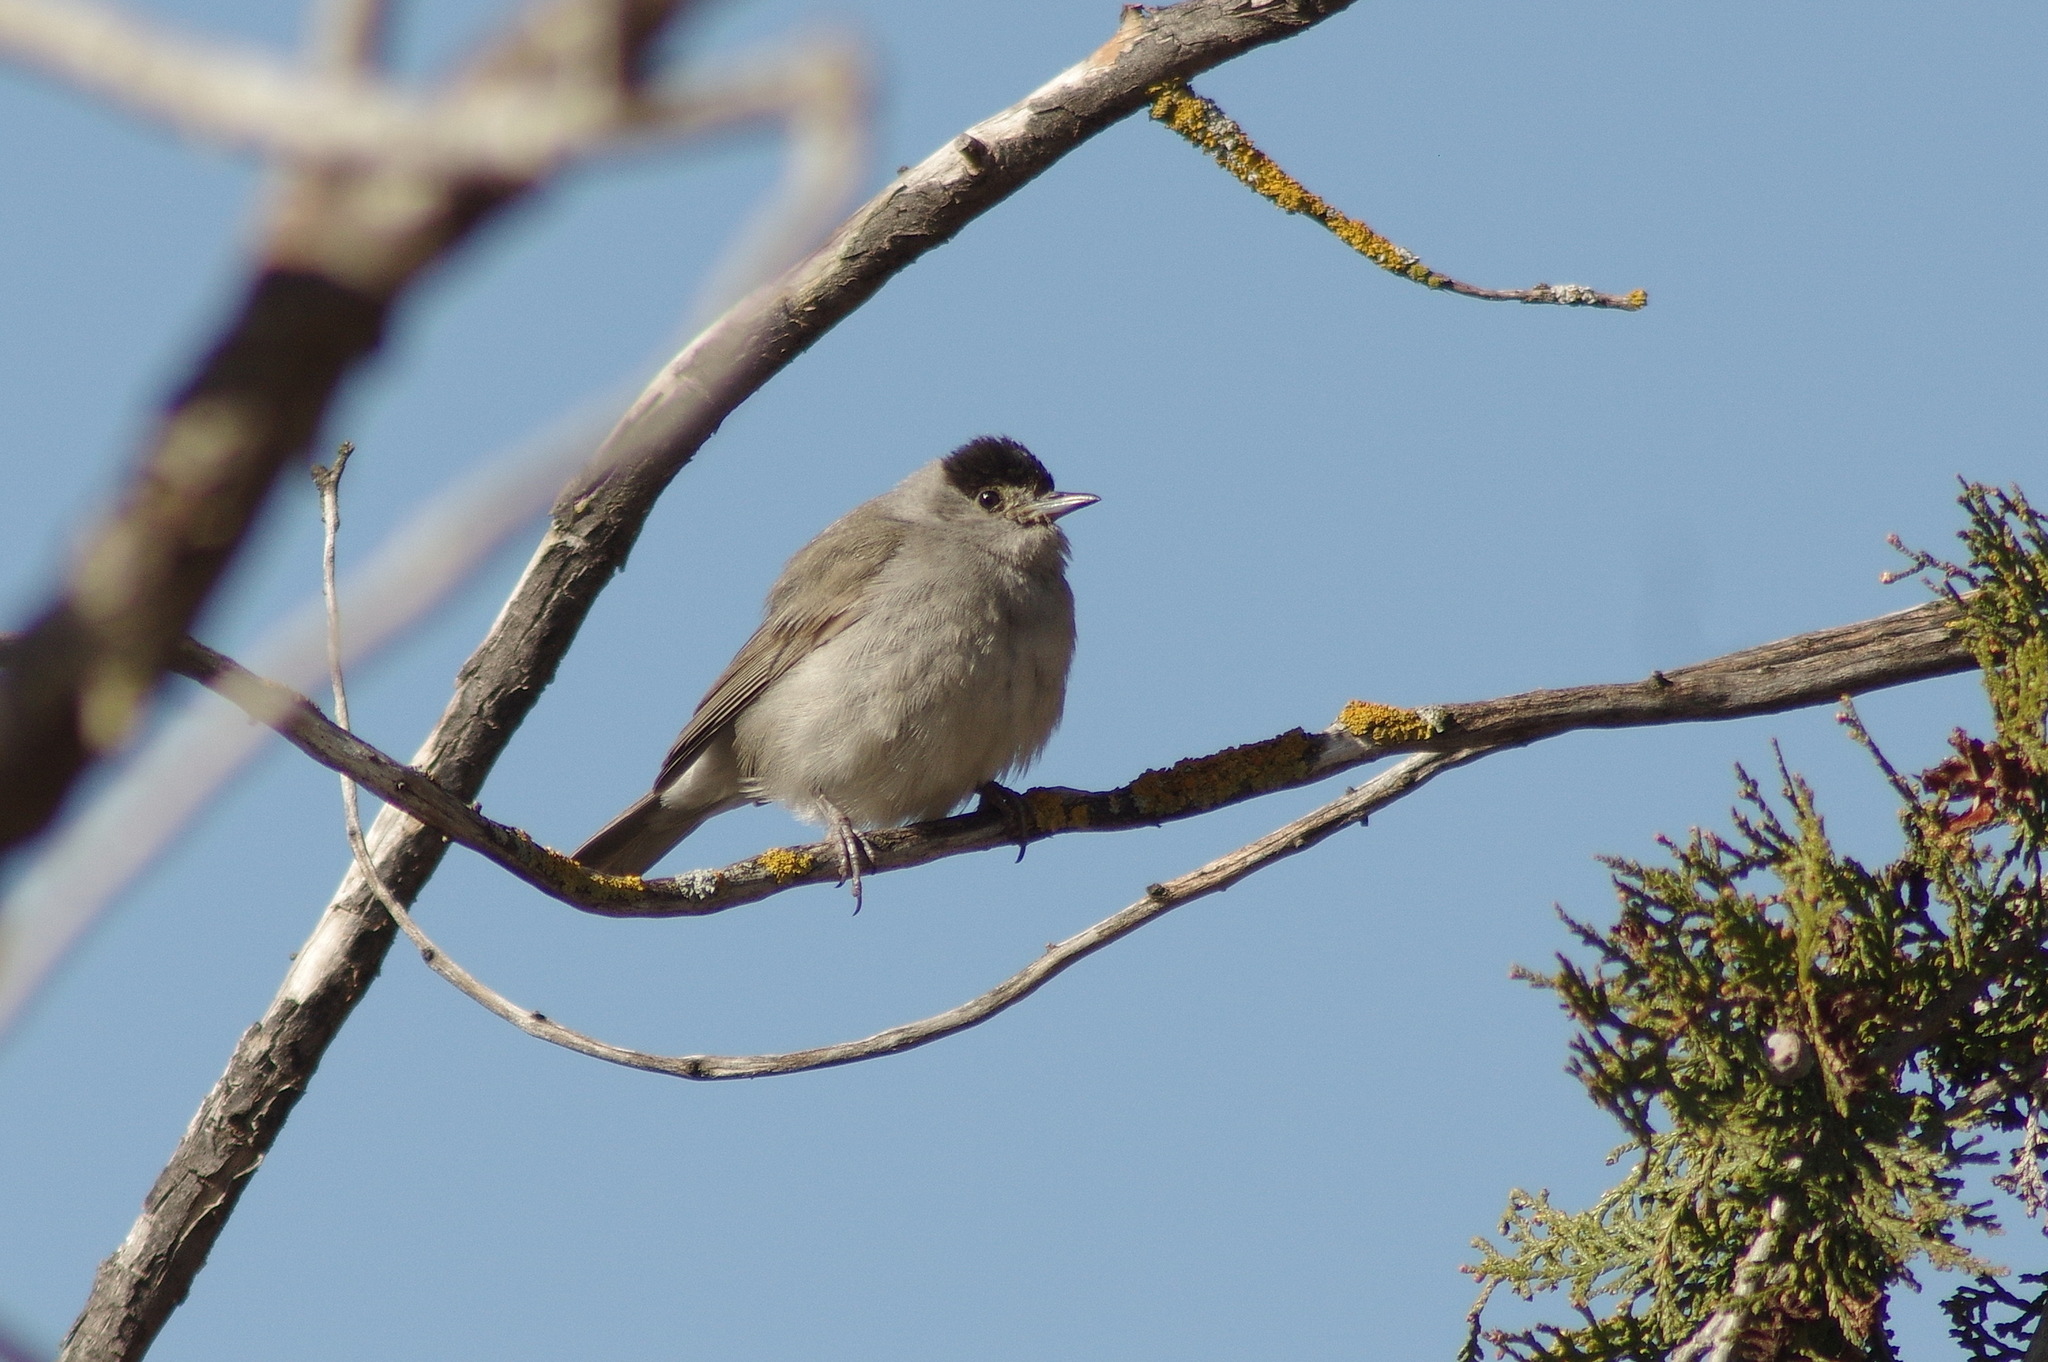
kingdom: Animalia
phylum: Chordata
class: Aves
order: Passeriformes
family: Sylviidae
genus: Sylvia
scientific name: Sylvia atricapilla
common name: Eurasian blackcap
